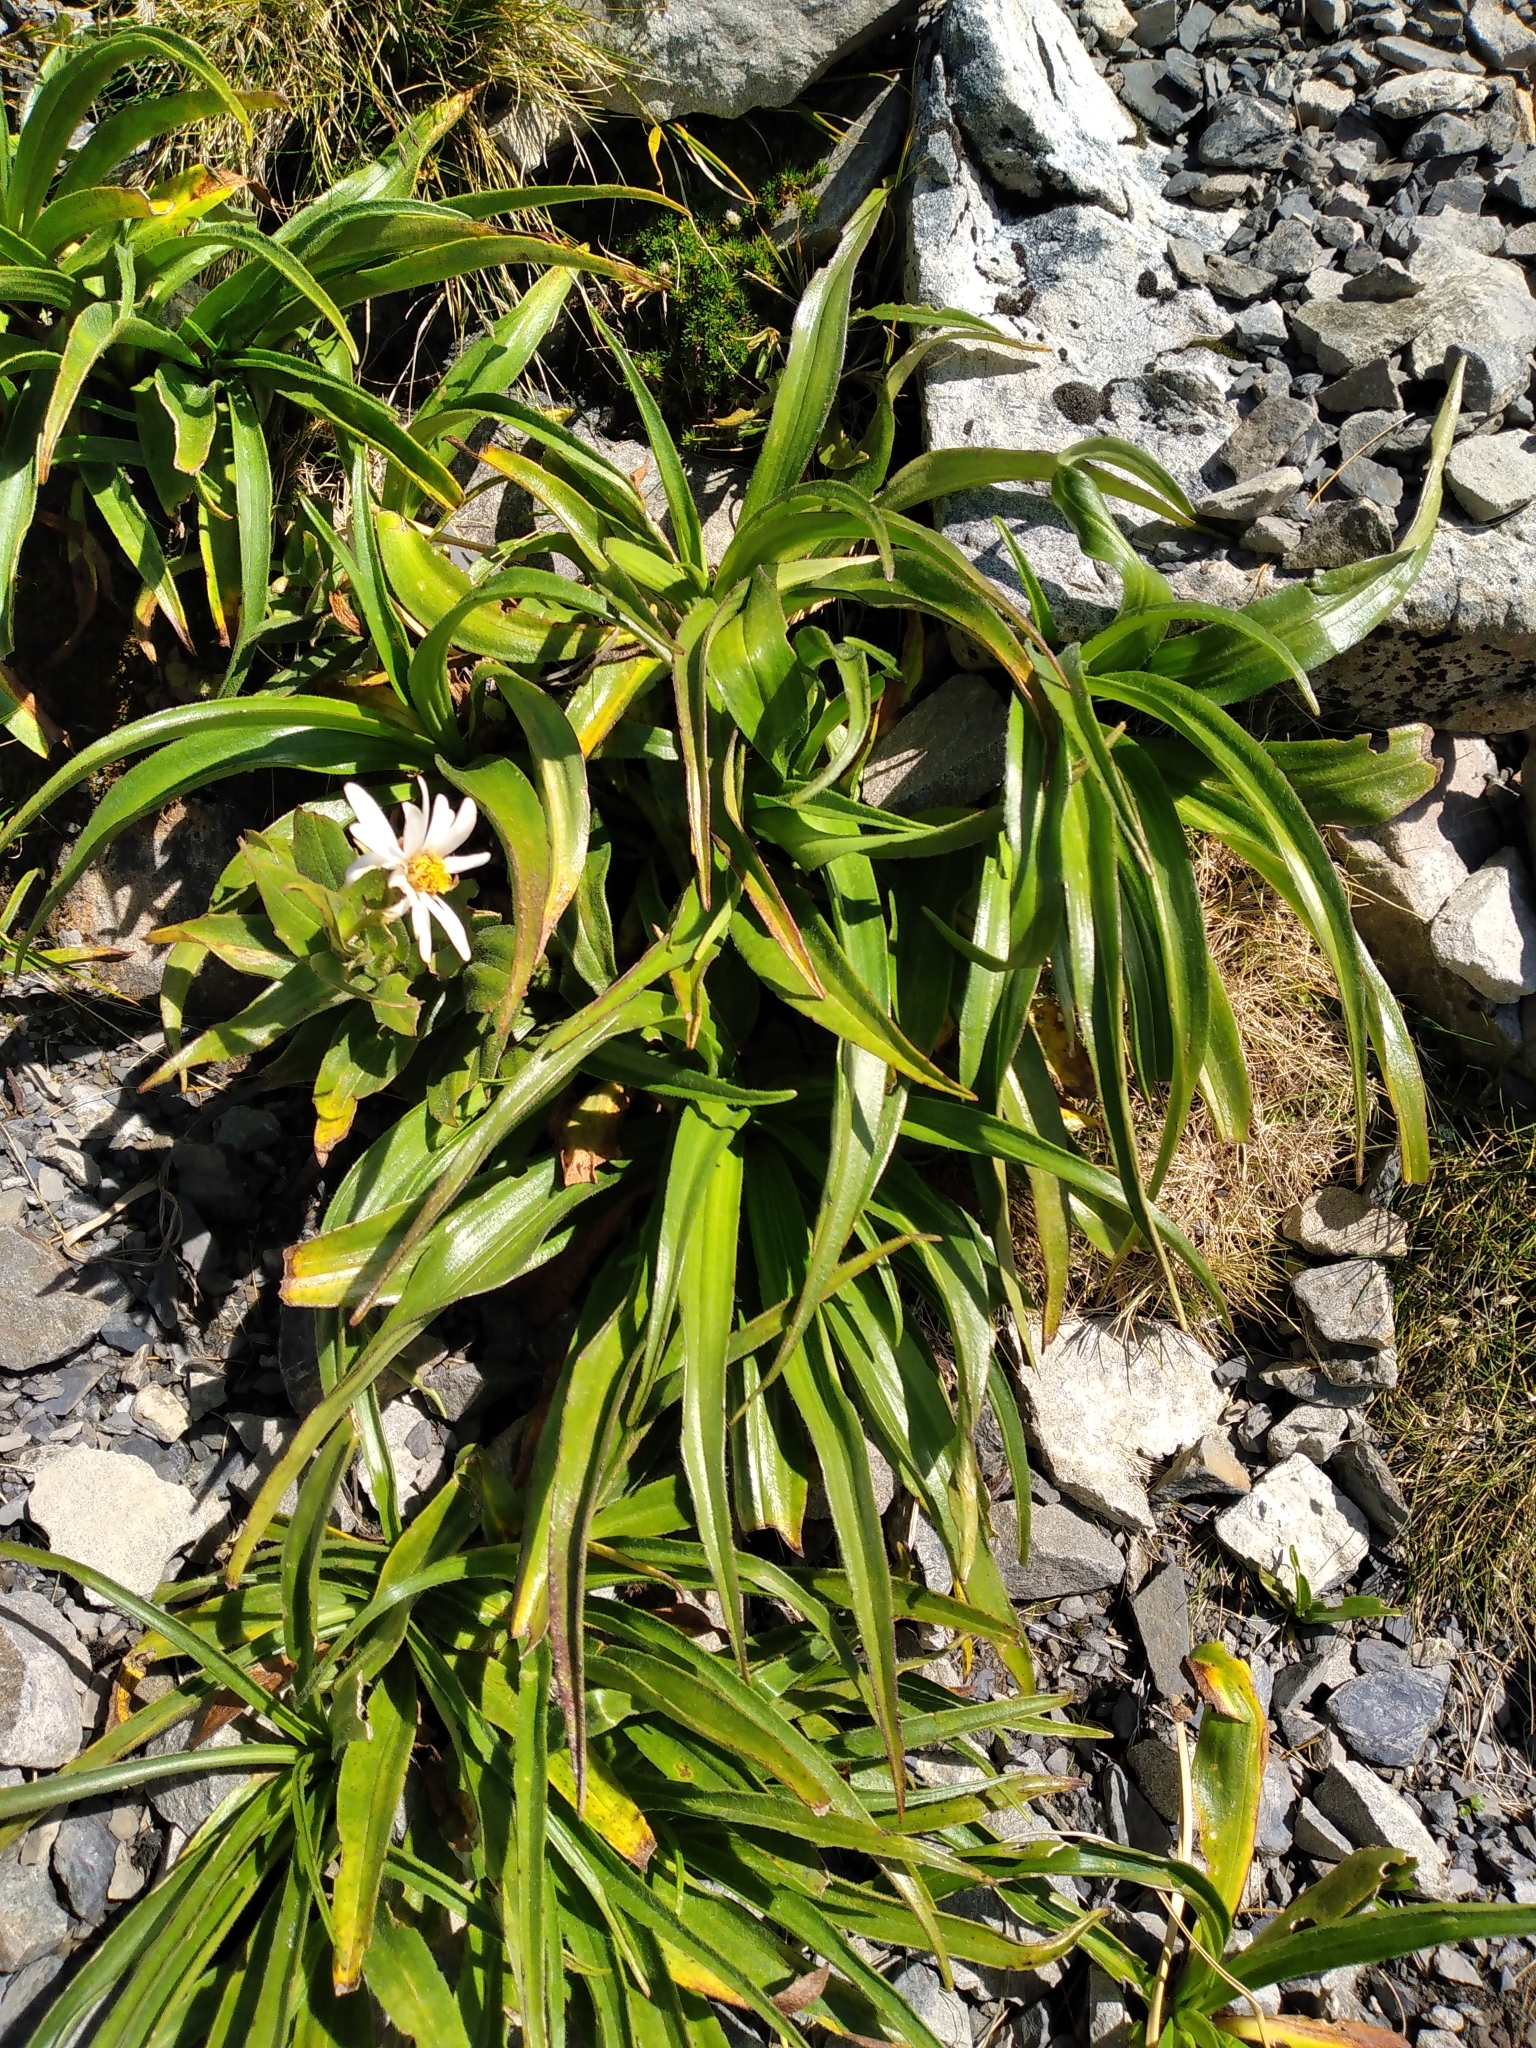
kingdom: Plantae
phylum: Tracheophyta
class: Magnoliopsida
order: Asterales
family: Asteraceae
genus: Dolichoglottis
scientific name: Dolichoglottis scorzoneroides
